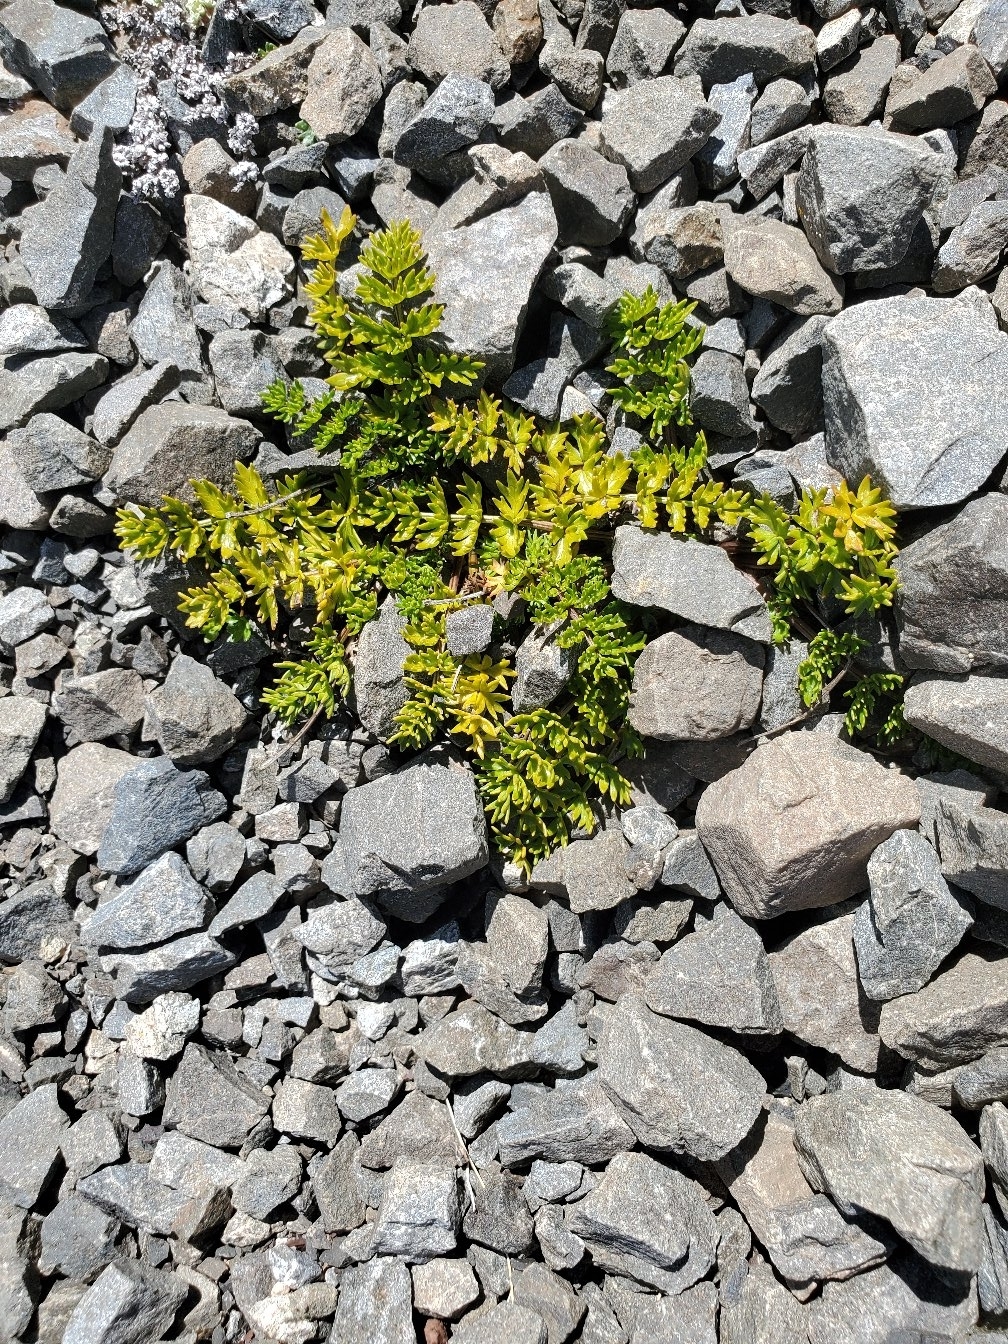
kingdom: Plantae
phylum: Tracheophyta
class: Magnoliopsida
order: Apiales
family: Apiaceae
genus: Gingidia
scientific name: Gingidia decipiens
